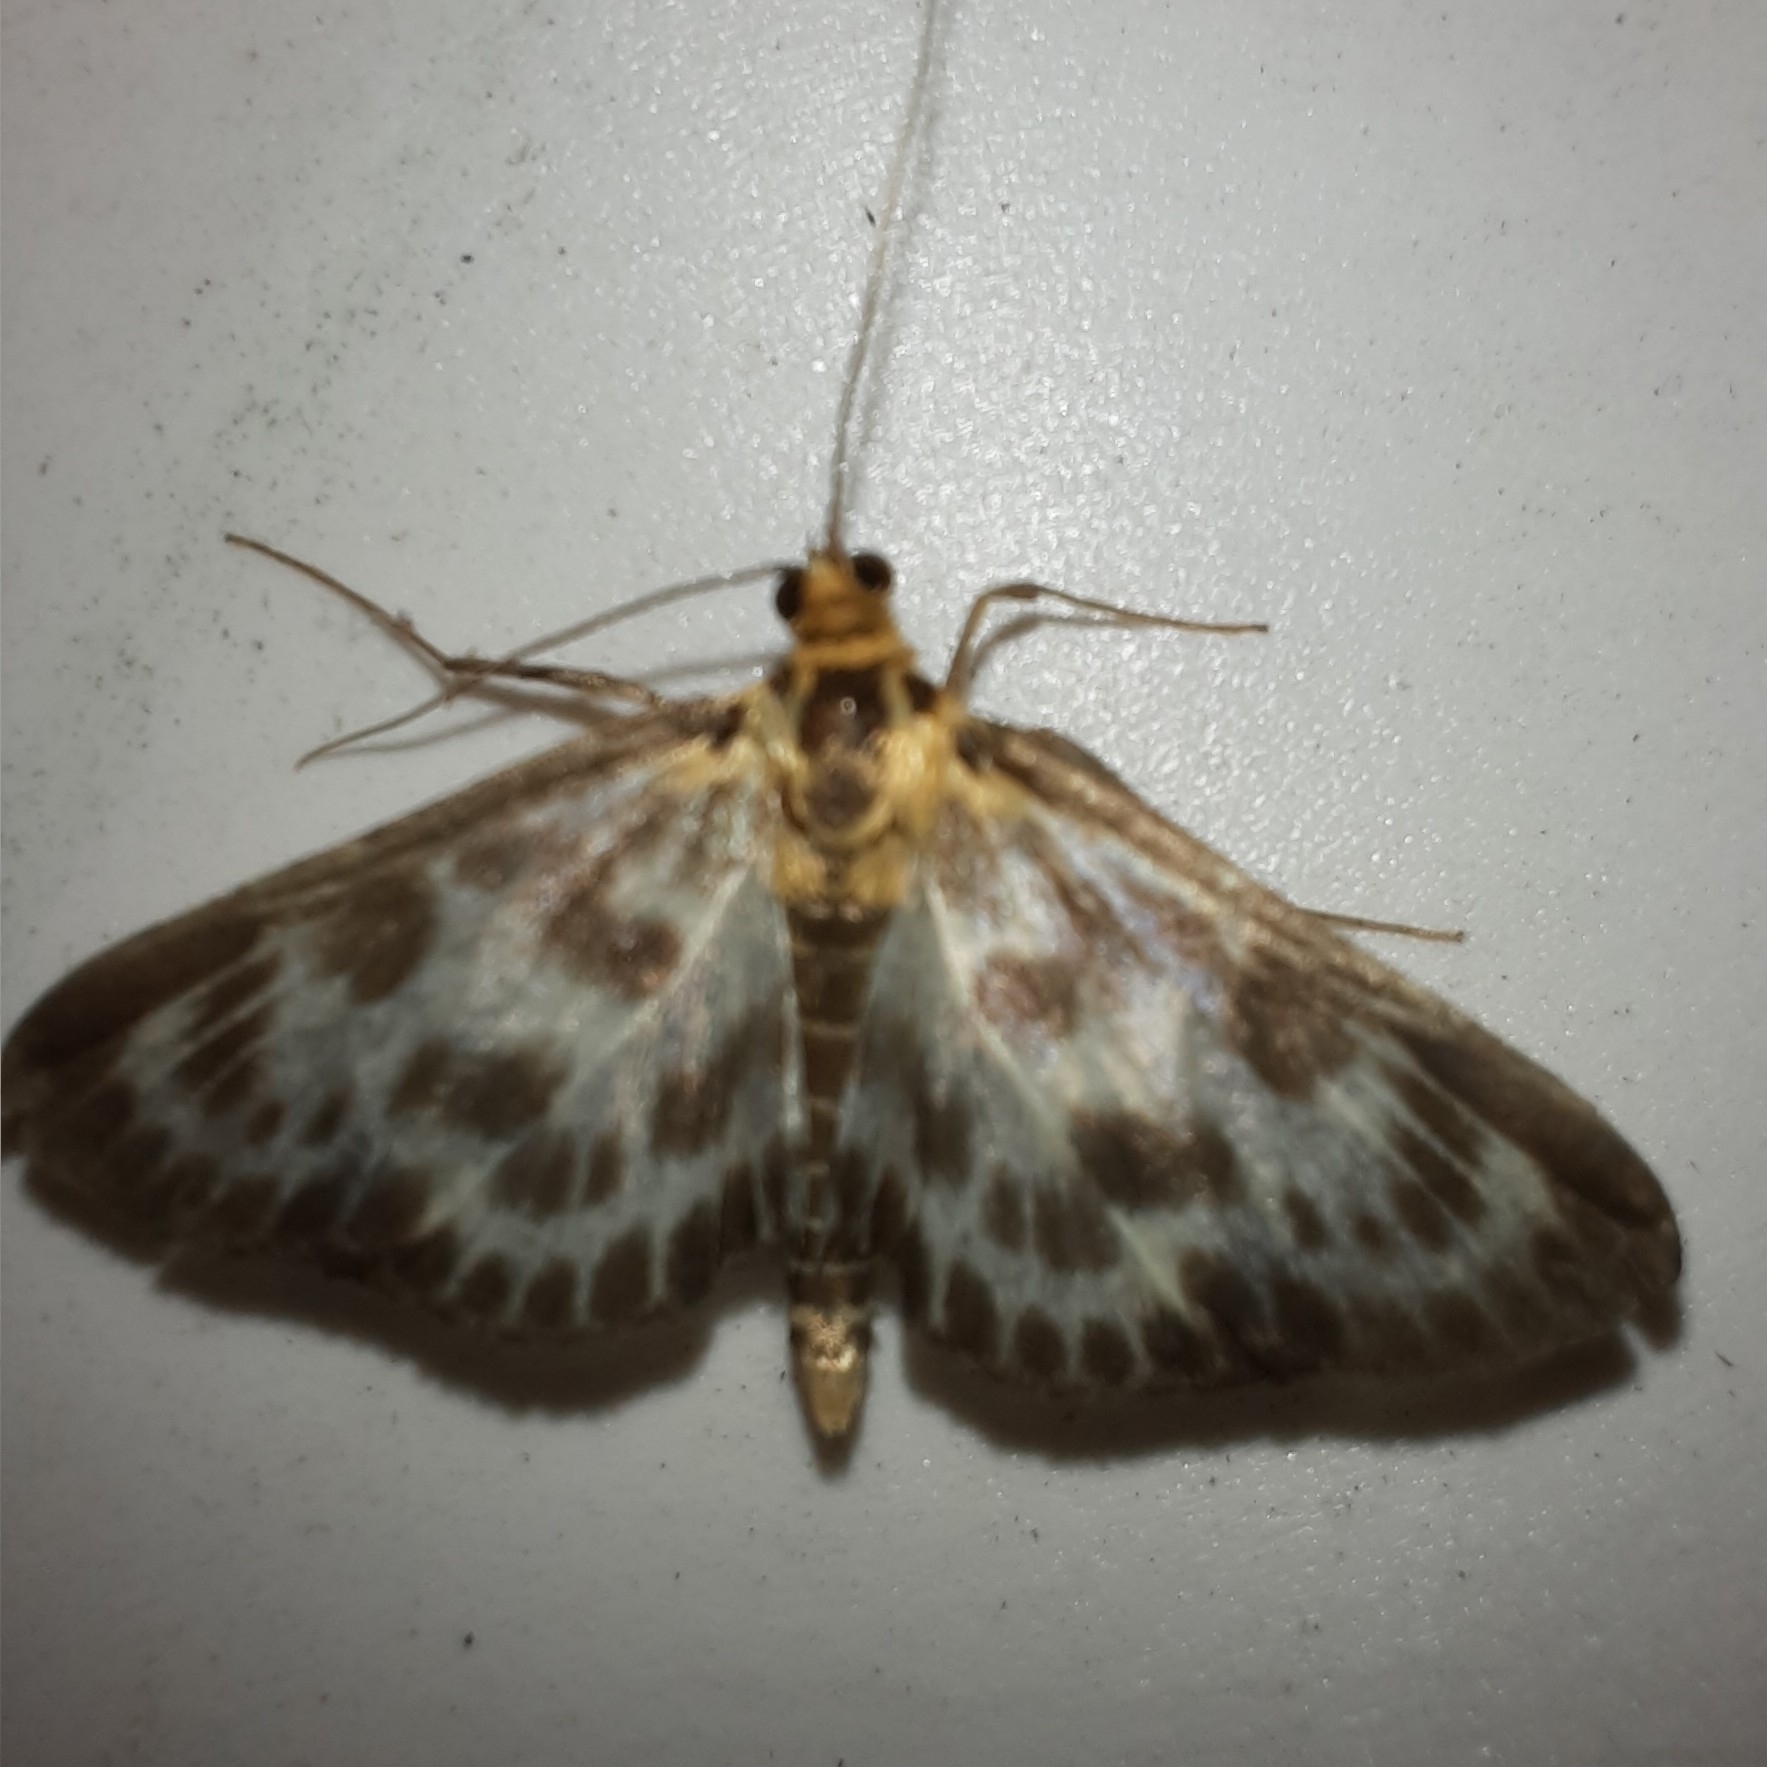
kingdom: Animalia
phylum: Arthropoda
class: Insecta
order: Lepidoptera
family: Crambidae
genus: Anania
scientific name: Anania hortulata
